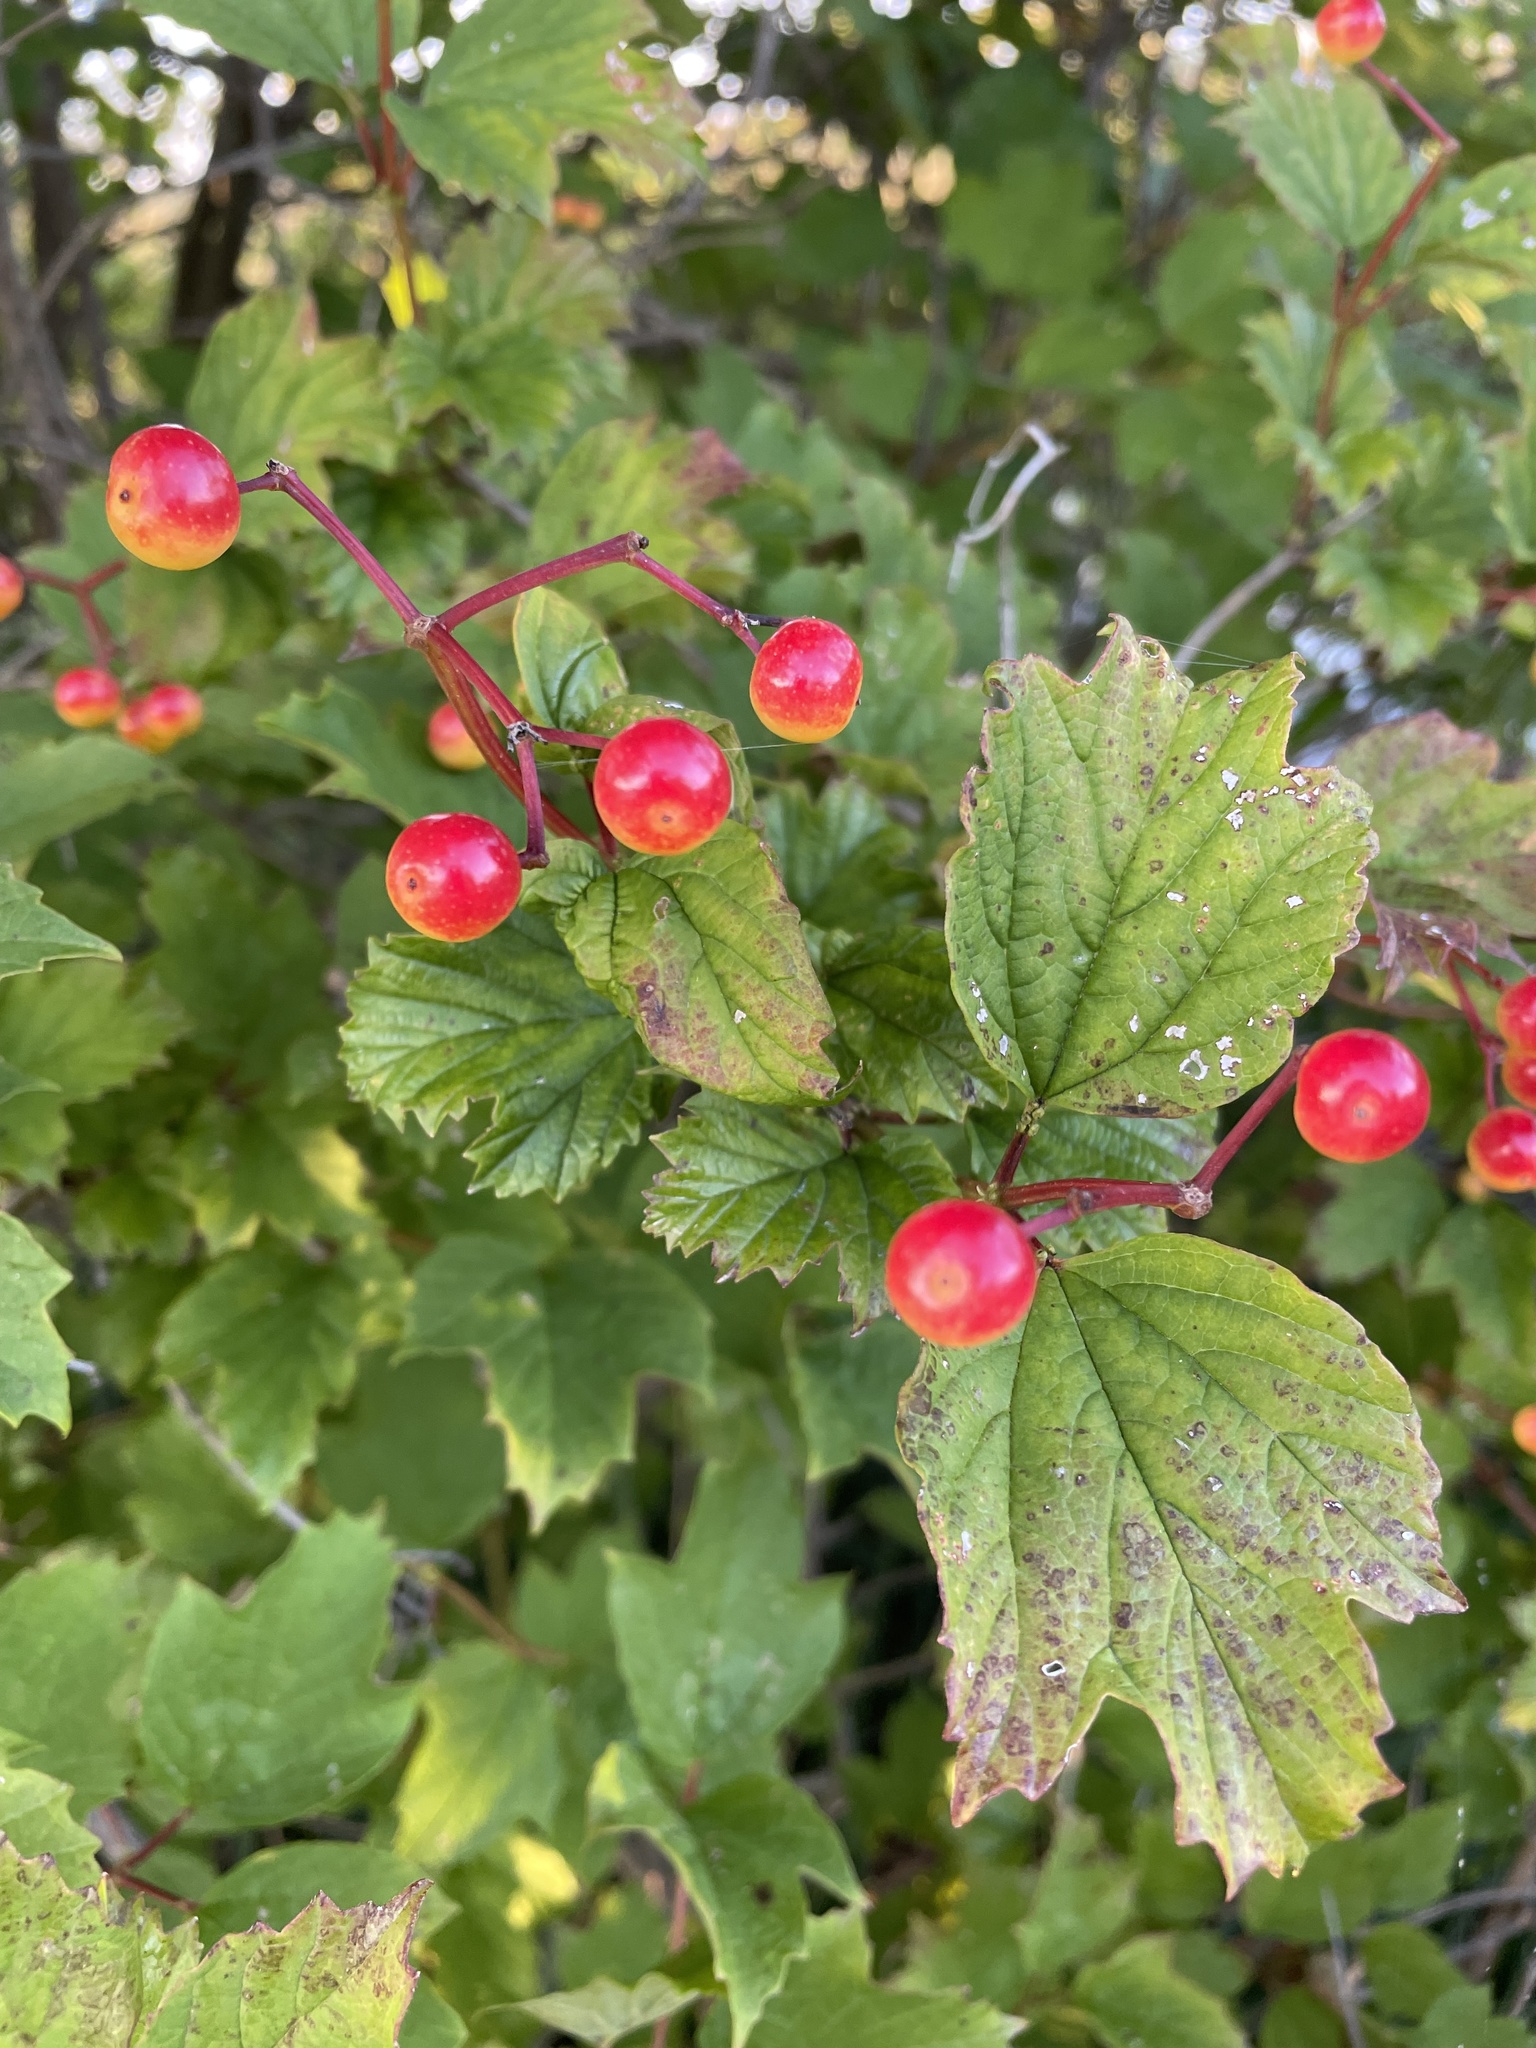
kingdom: Plantae
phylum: Tracheophyta
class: Magnoliopsida
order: Dipsacales
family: Viburnaceae
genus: Viburnum
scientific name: Viburnum opulus
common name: Guelder-rose
